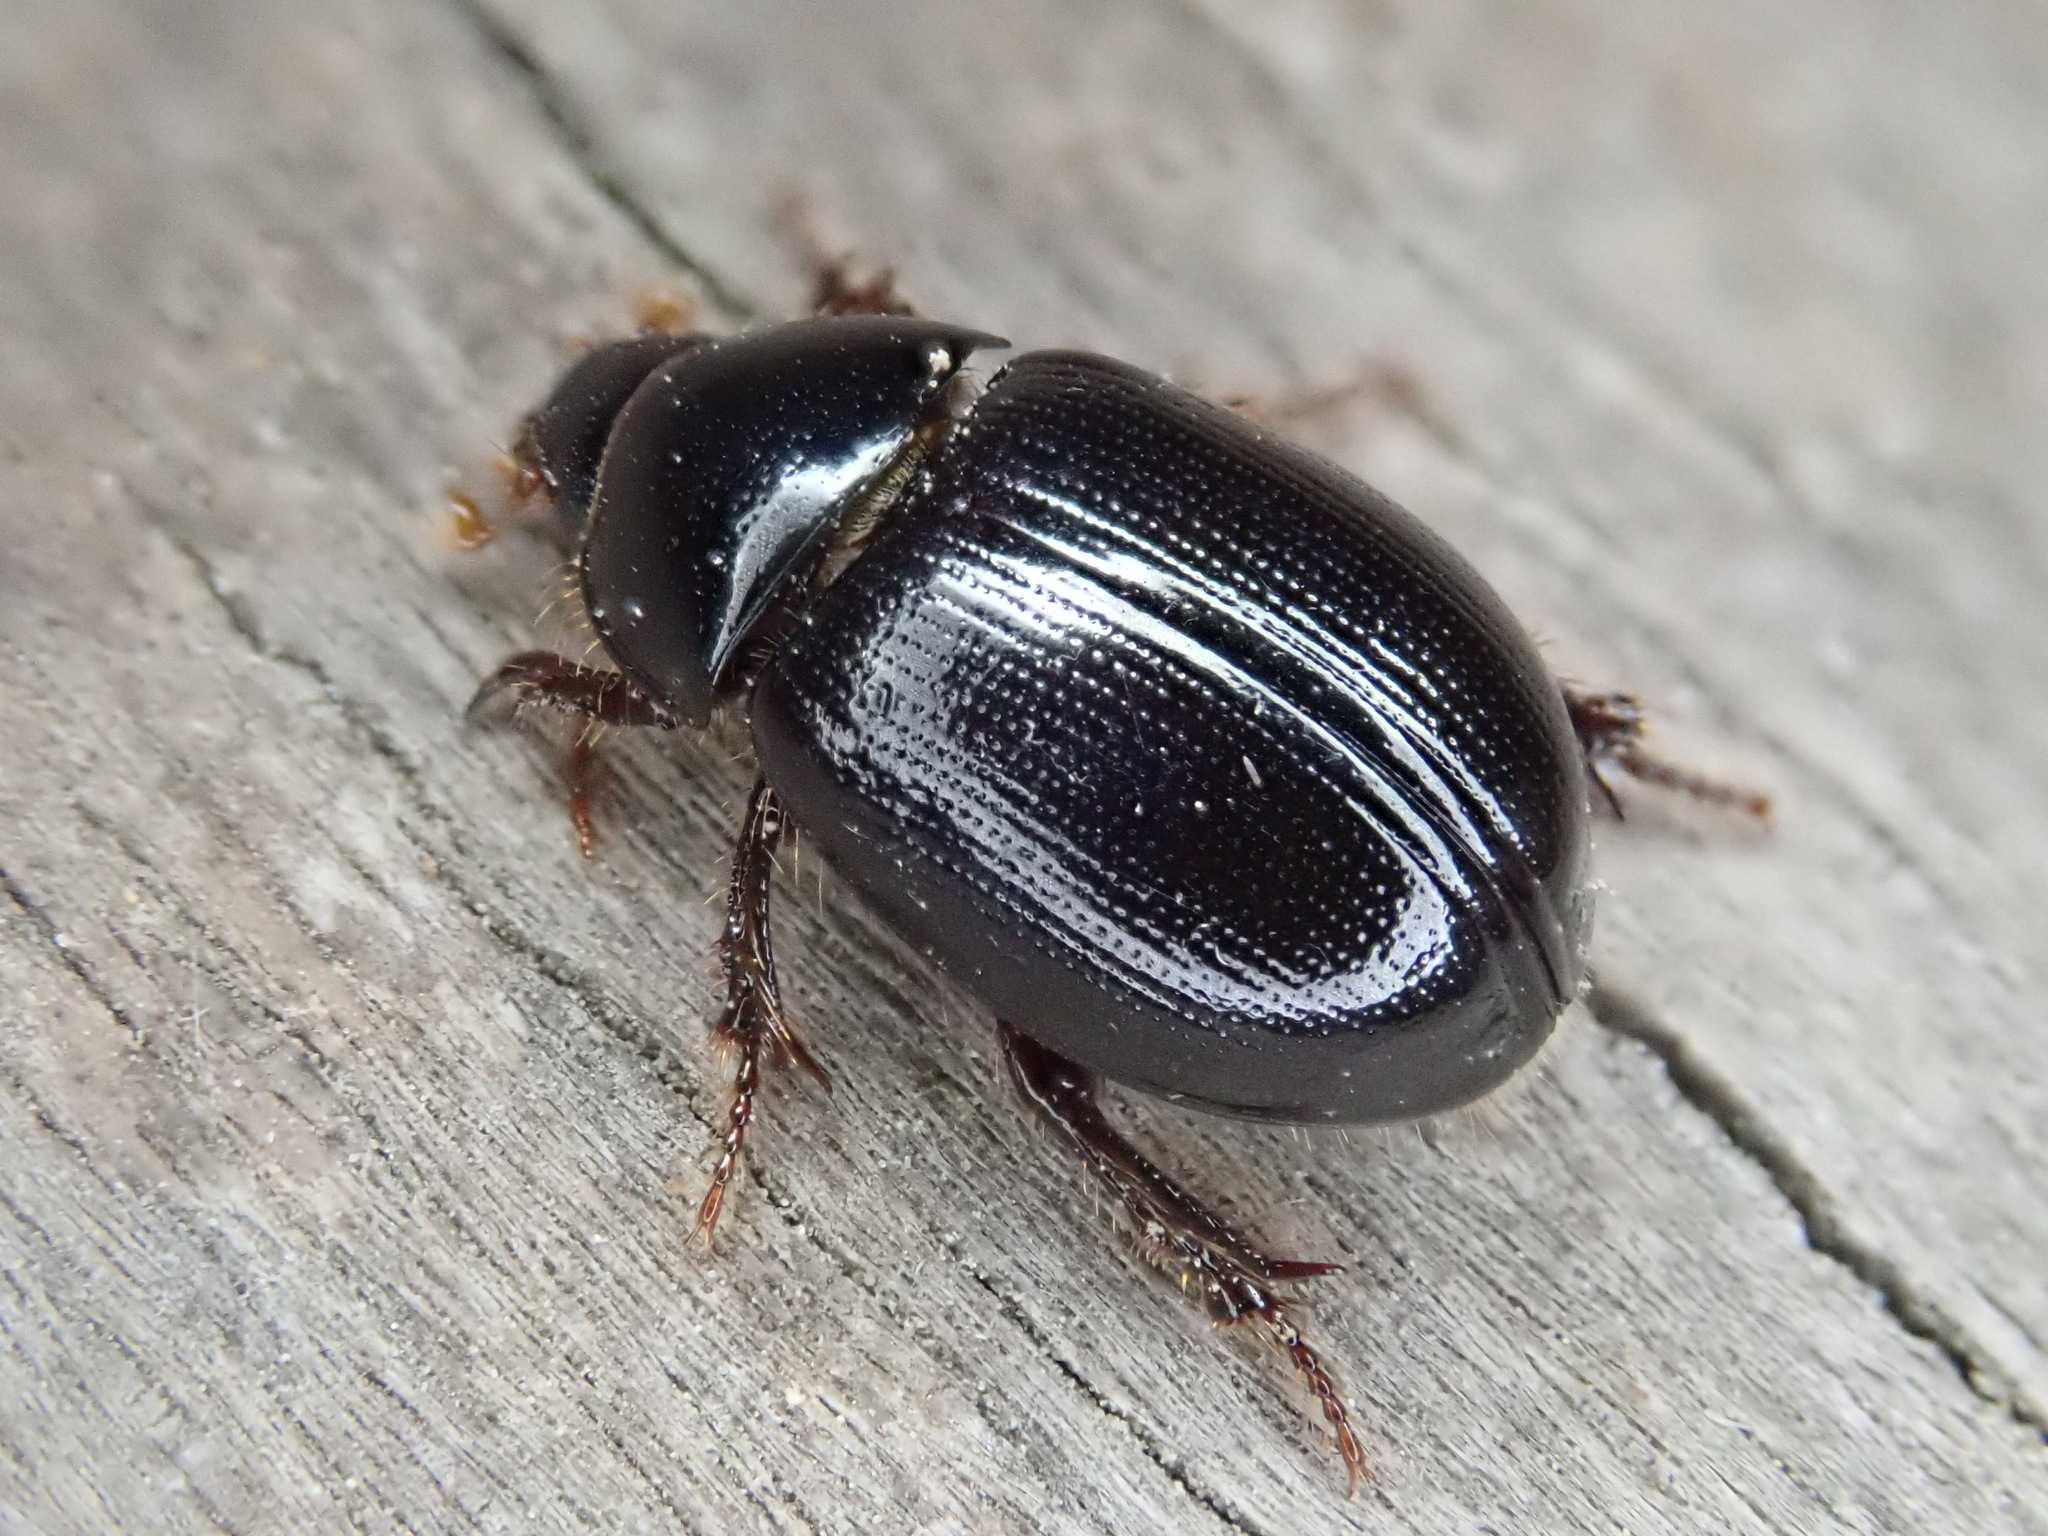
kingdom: Animalia
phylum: Arthropoda
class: Insecta
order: Coleoptera
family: Hybosoridae
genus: Hybosorus
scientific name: Hybosorus illigeri
